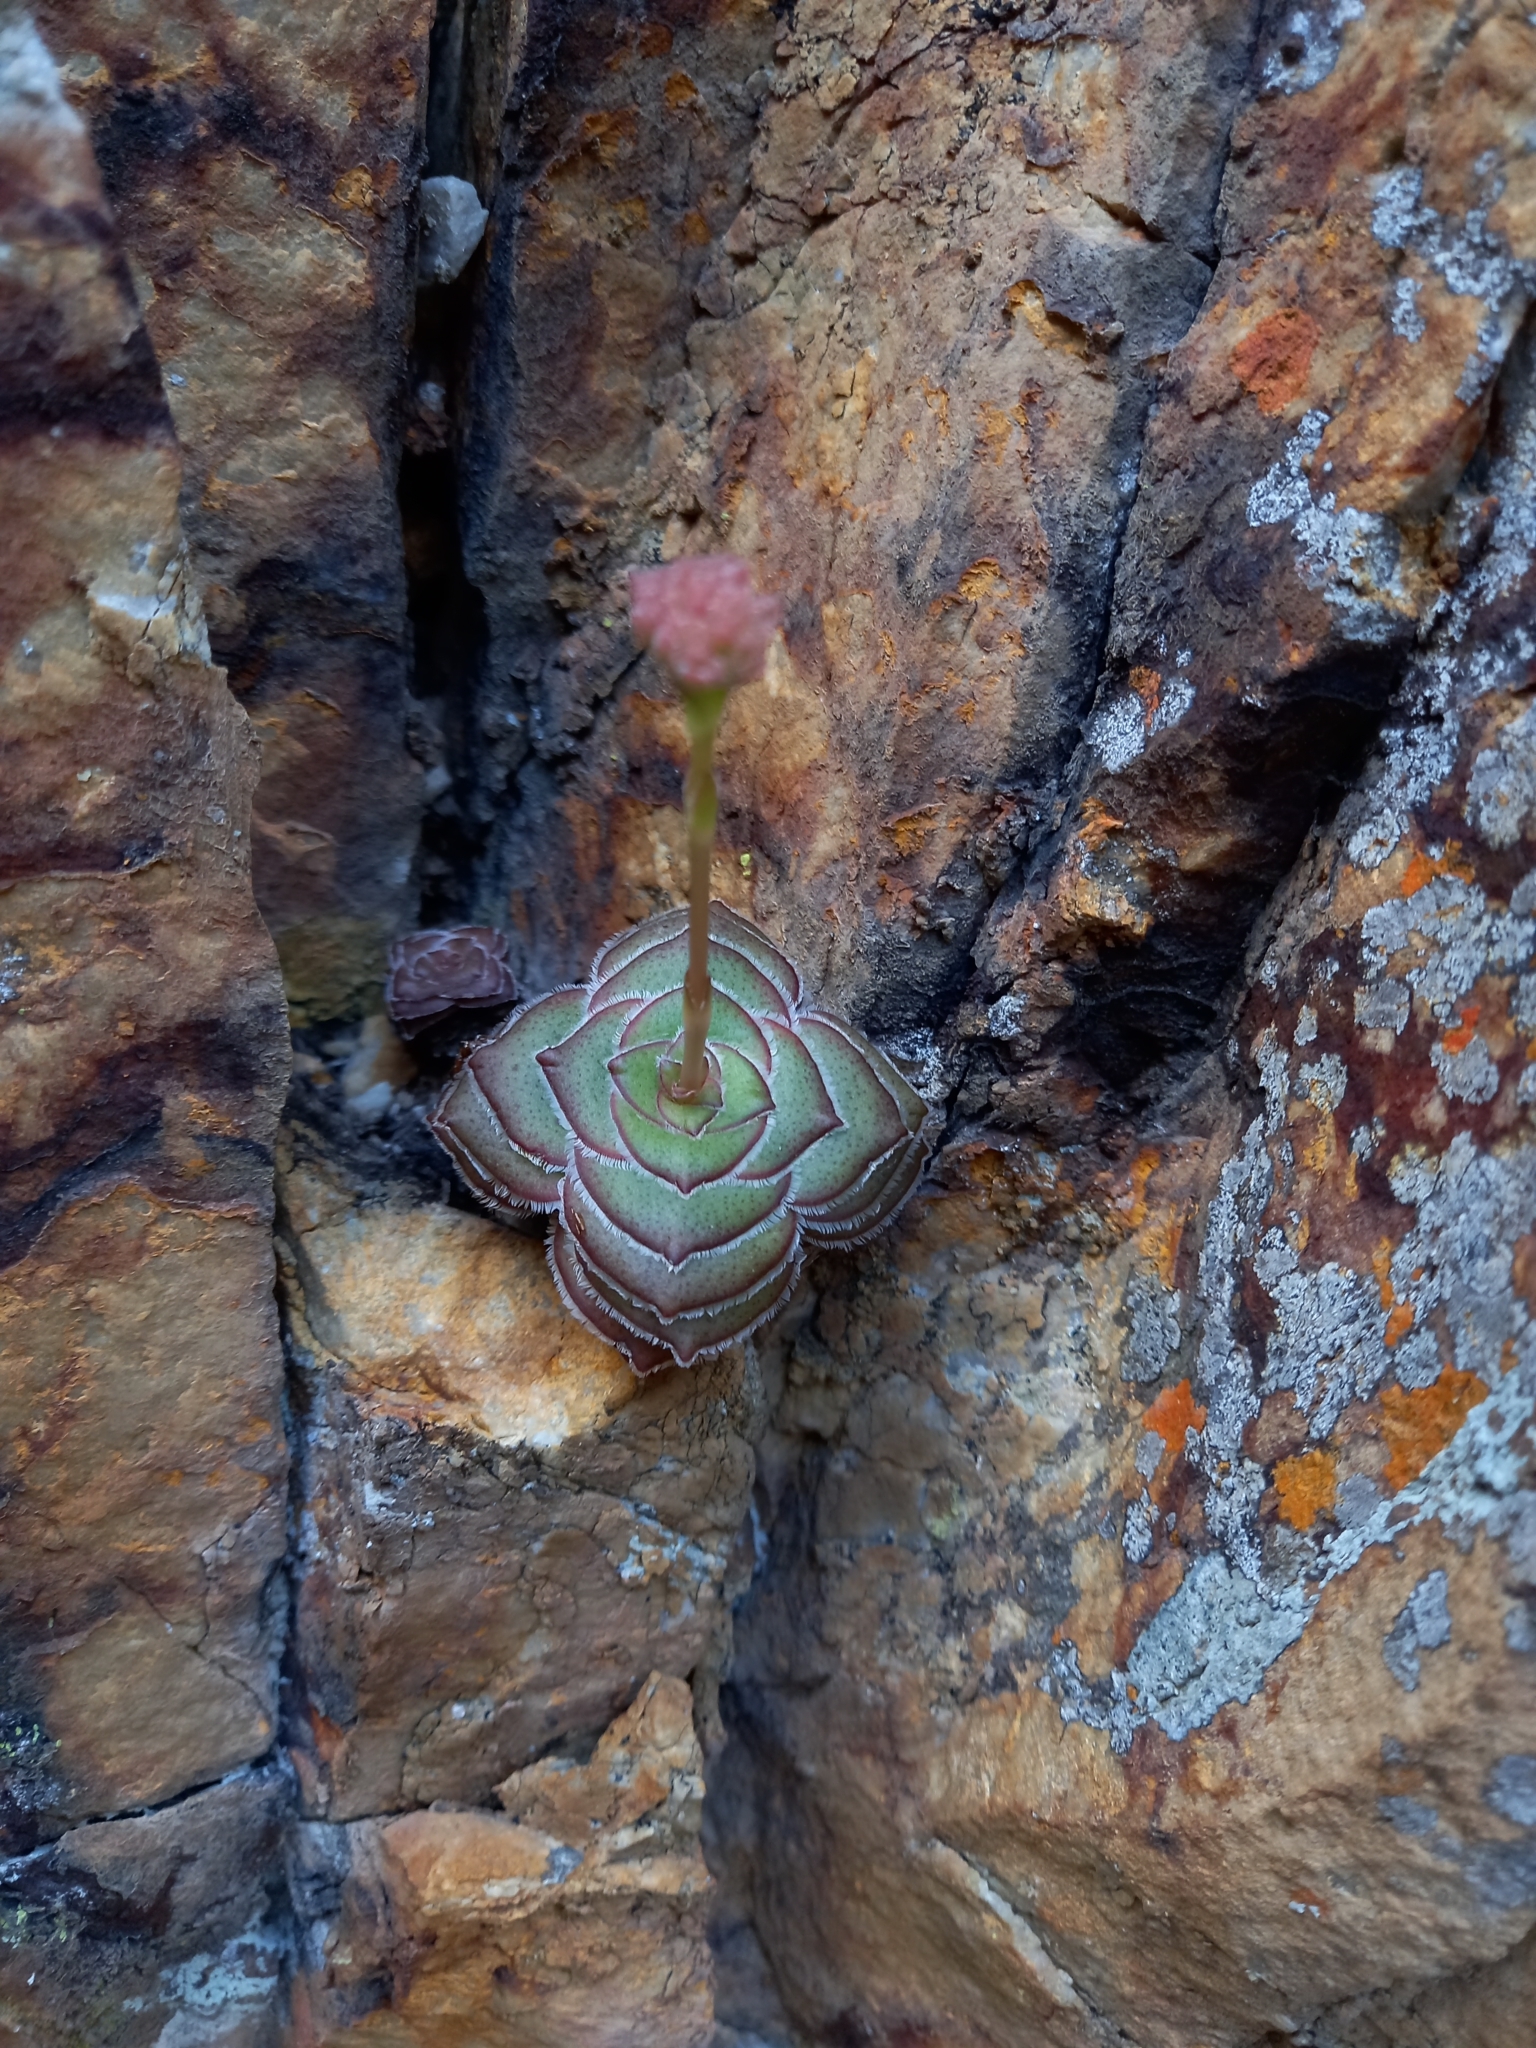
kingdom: Plantae
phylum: Tracheophyta
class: Magnoliopsida
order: Saxifragales
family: Crassulaceae
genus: Crassula
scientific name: Crassula cremnophila
